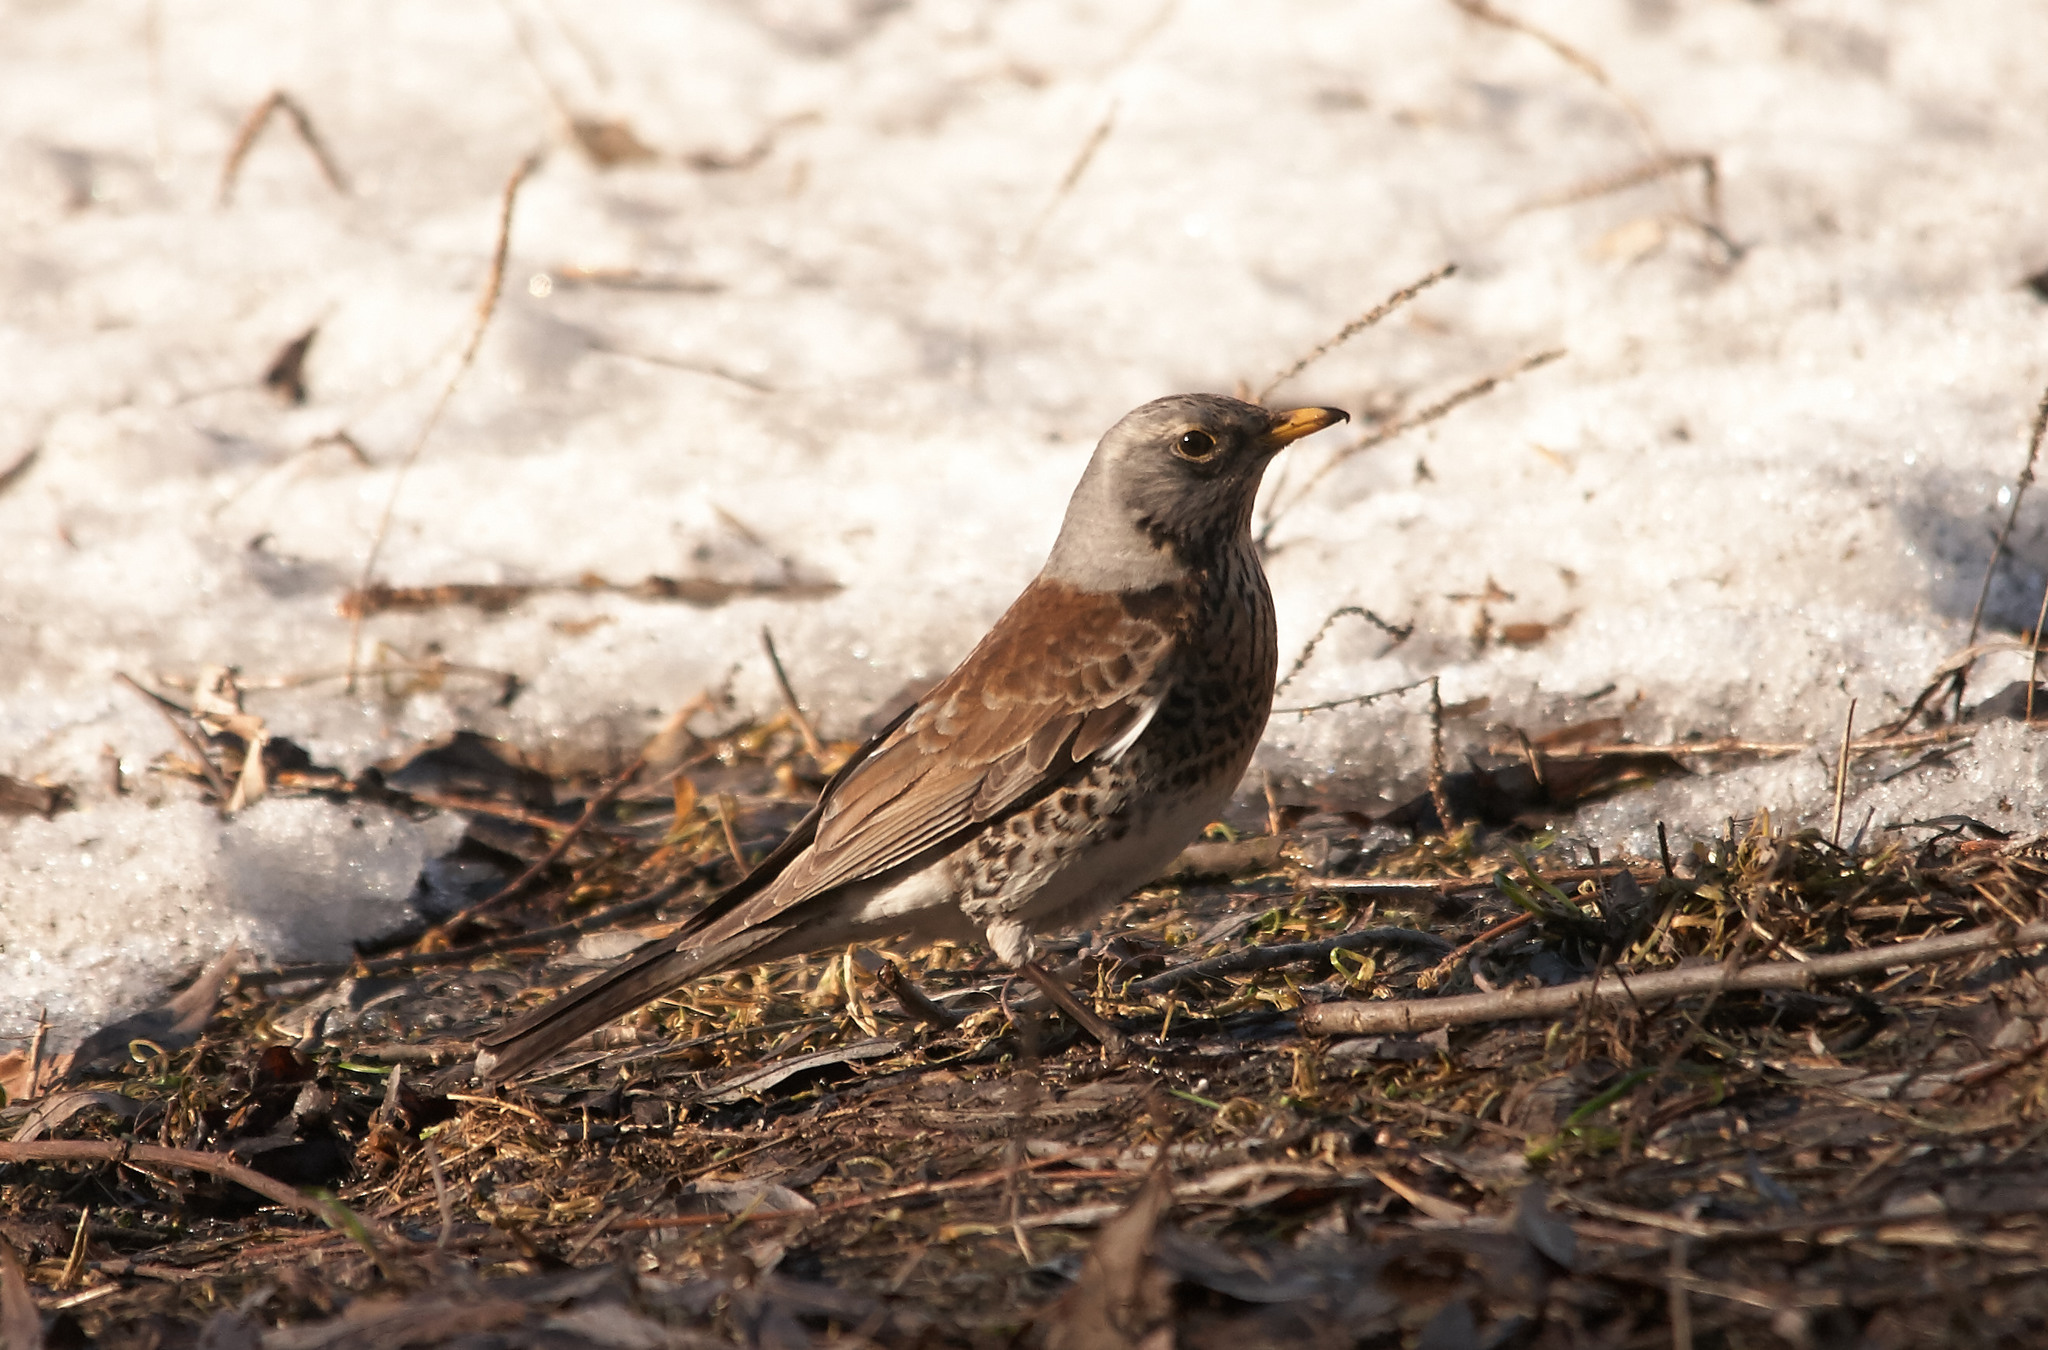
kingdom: Animalia
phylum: Chordata
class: Aves
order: Passeriformes
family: Turdidae
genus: Turdus
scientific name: Turdus pilaris
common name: Fieldfare
